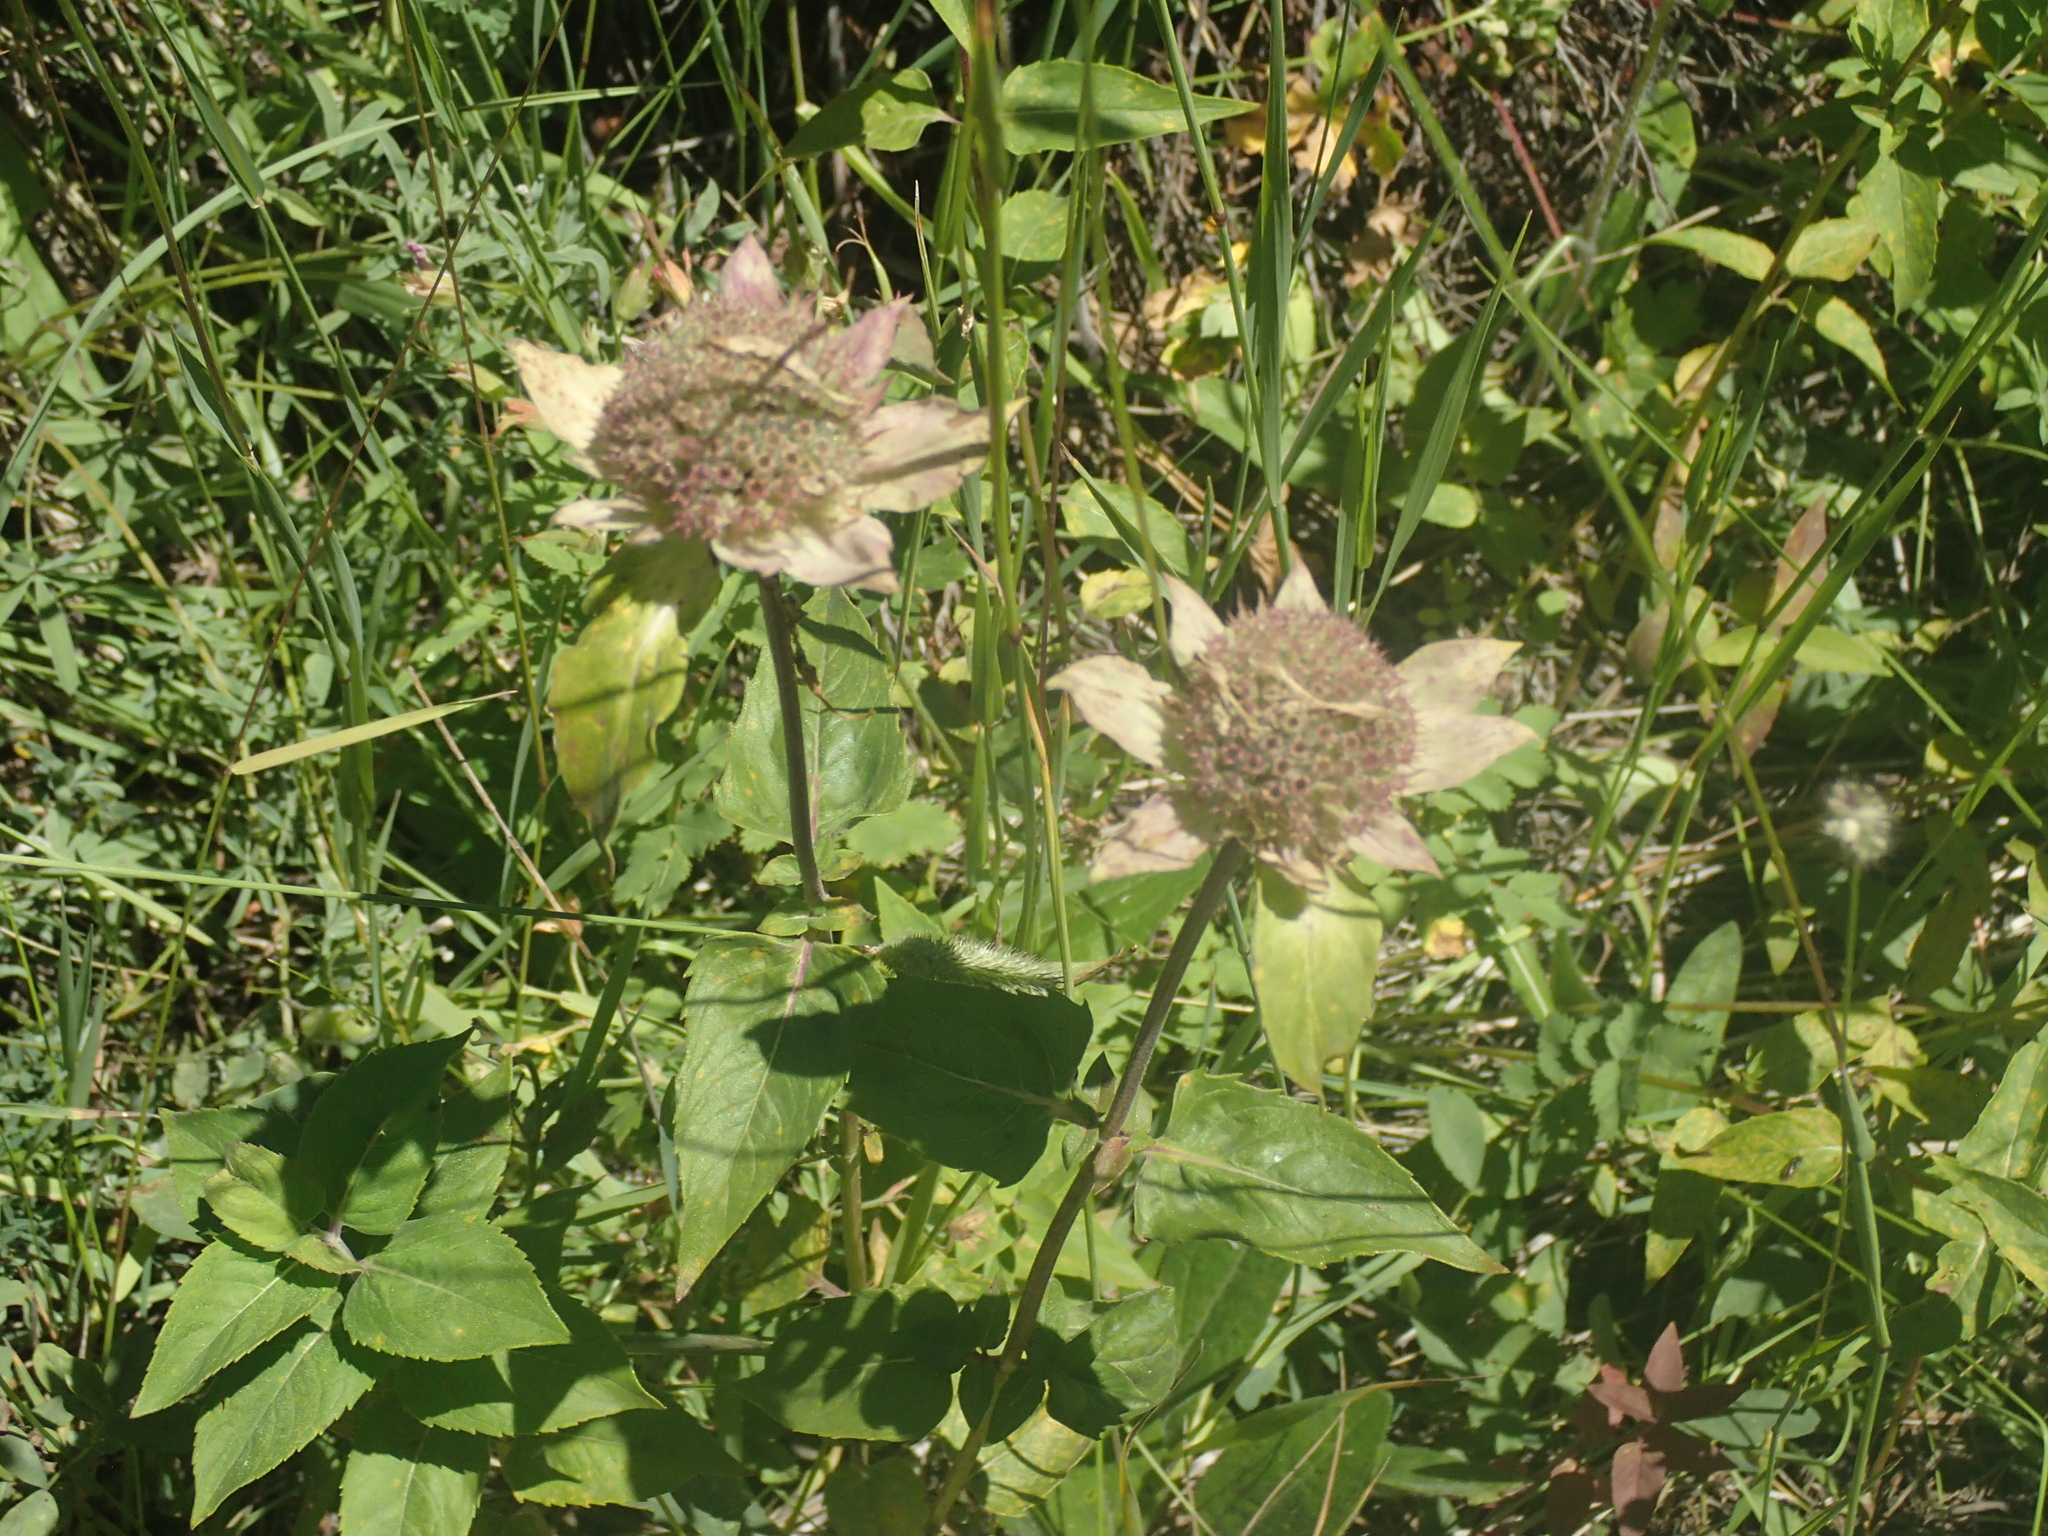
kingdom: Plantae
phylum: Tracheophyta
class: Magnoliopsida
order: Lamiales
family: Lamiaceae
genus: Monarda
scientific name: Monarda fistulosa
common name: Purple beebalm
